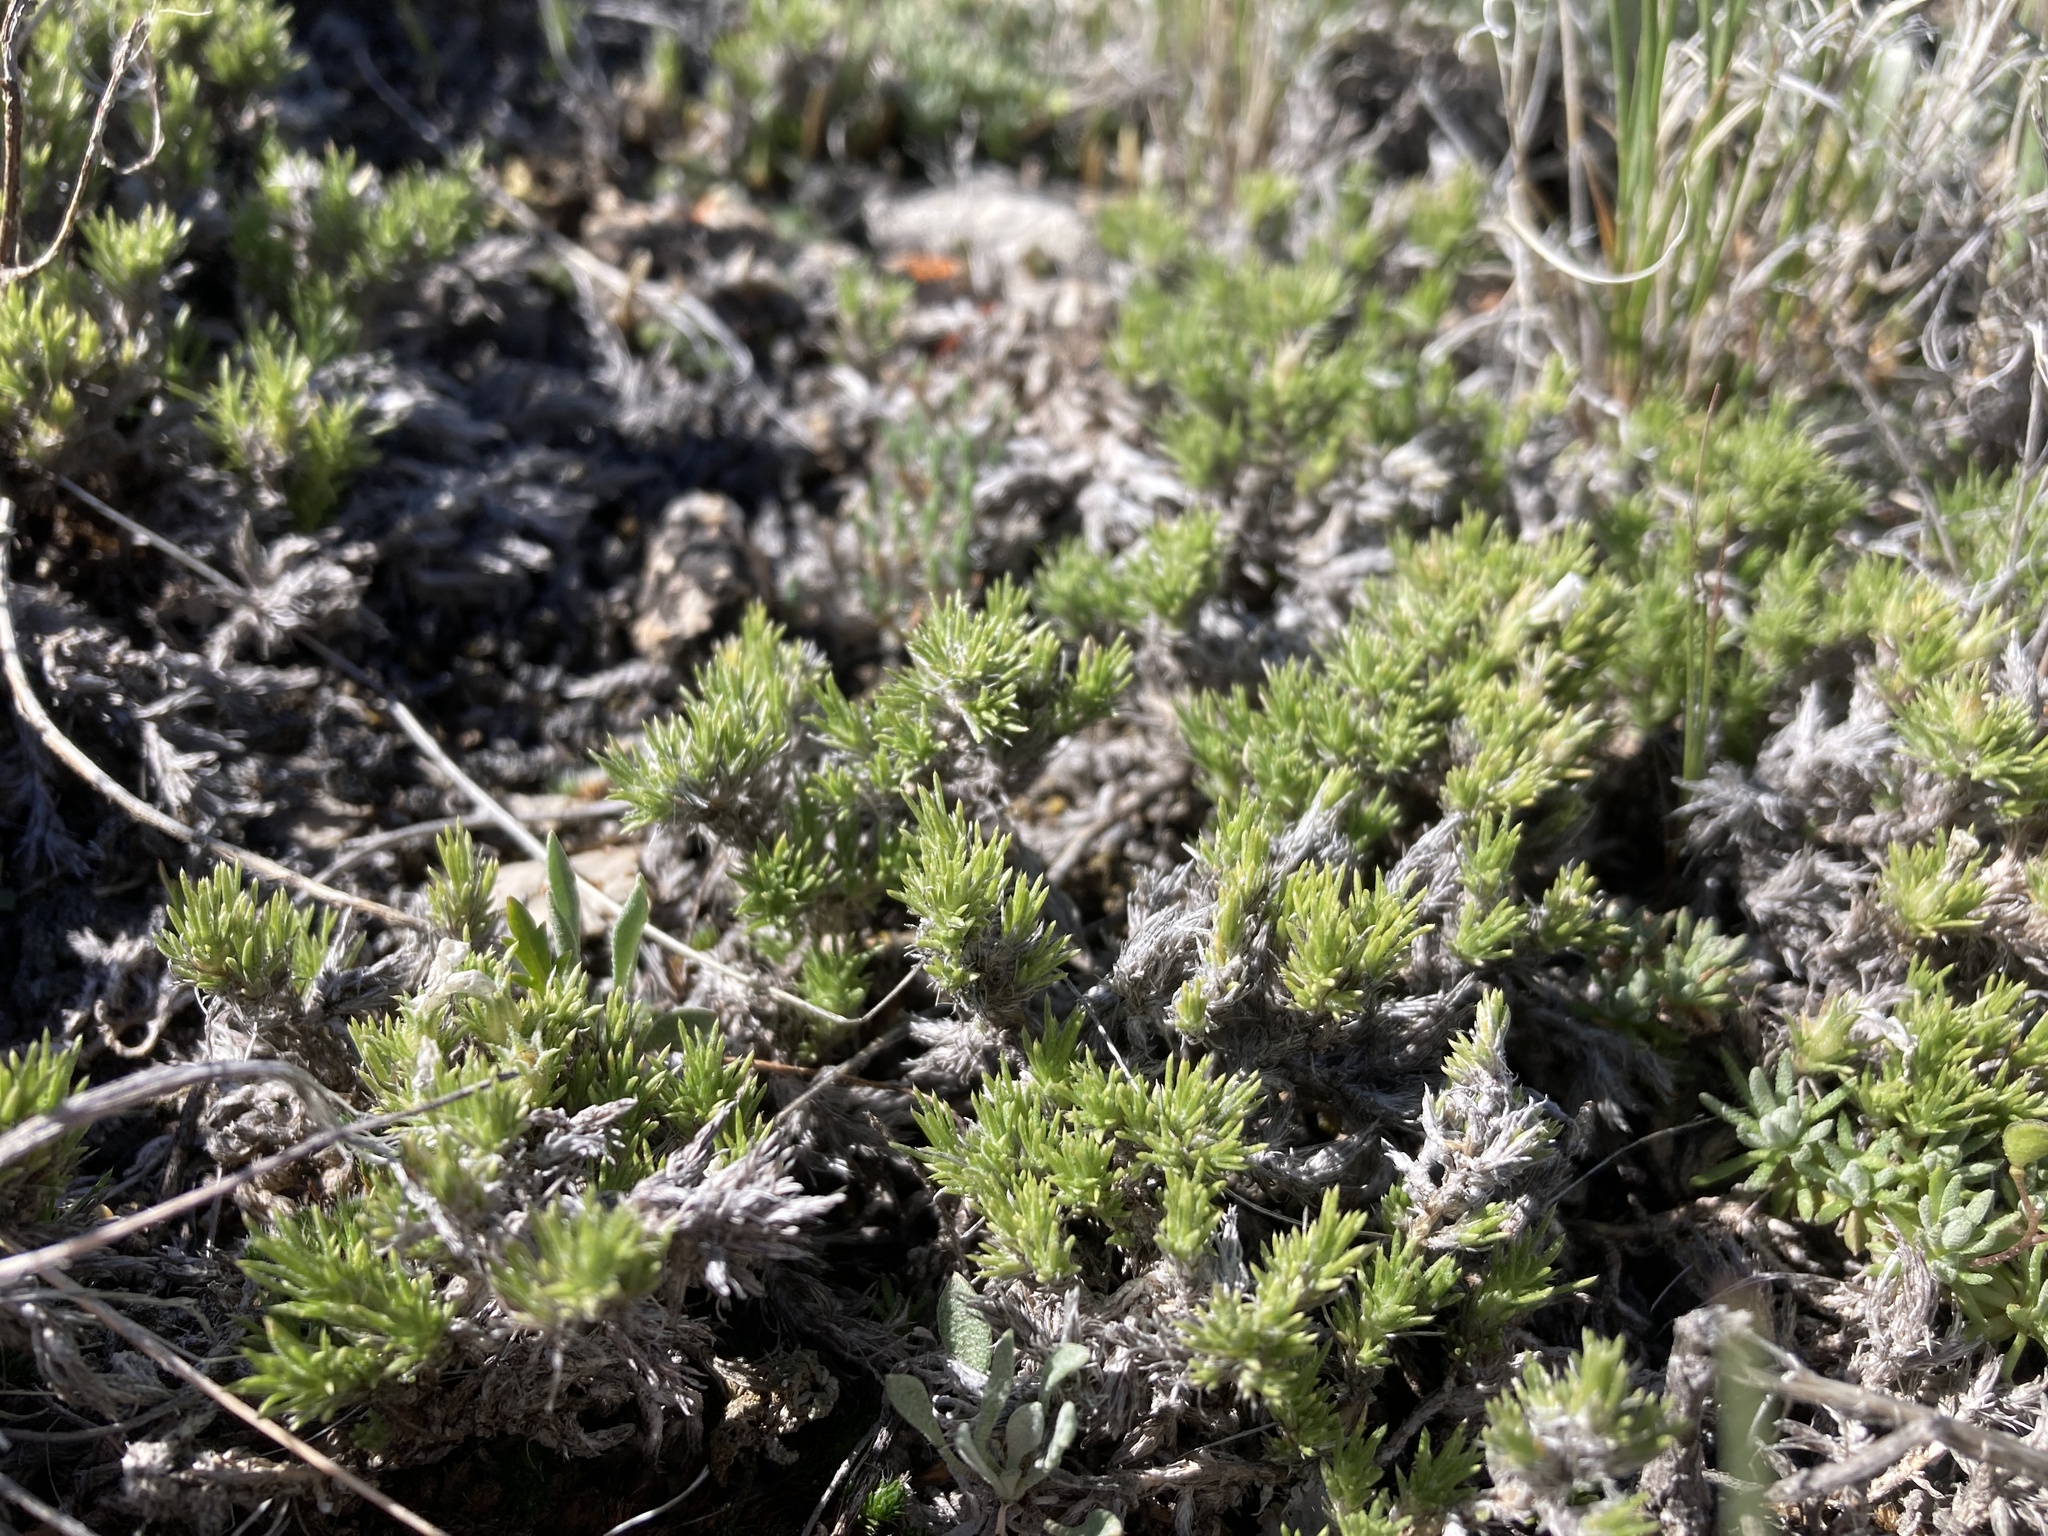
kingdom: Plantae
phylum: Tracheophyta
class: Magnoliopsida
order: Ericales
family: Polemoniaceae
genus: Phlox
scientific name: Phlox hoodii
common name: Moss phlox
